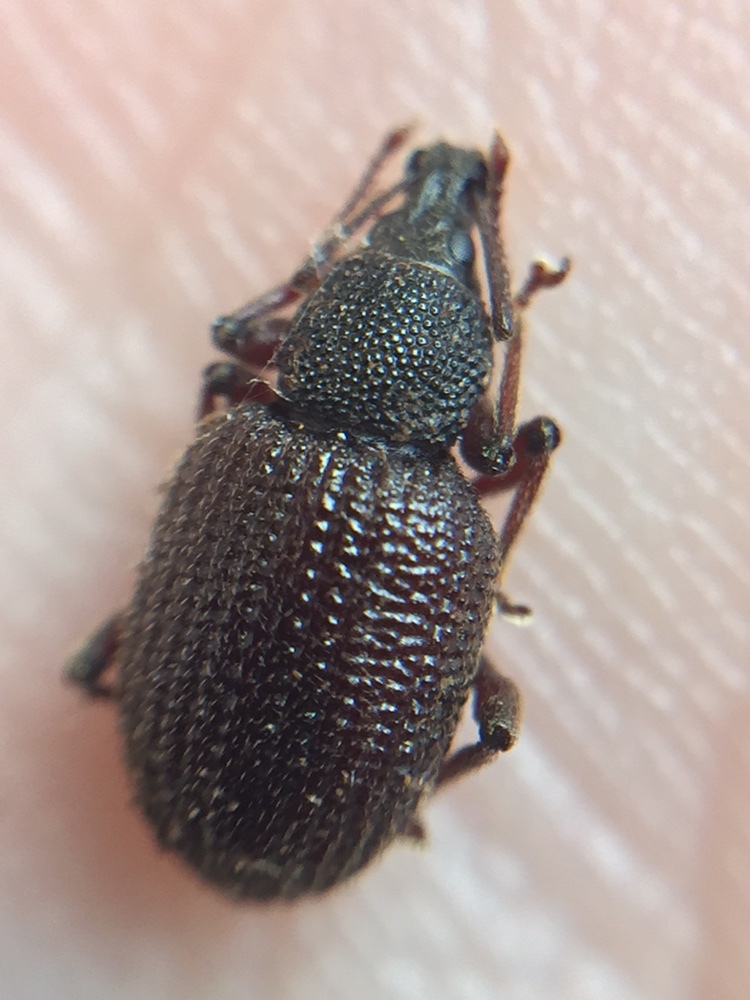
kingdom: Animalia
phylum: Arthropoda
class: Insecta
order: Coleoptera
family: Curculionidae
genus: Otiorhynchus
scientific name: Otiorhynchus rugosostriatus
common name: Weevil
